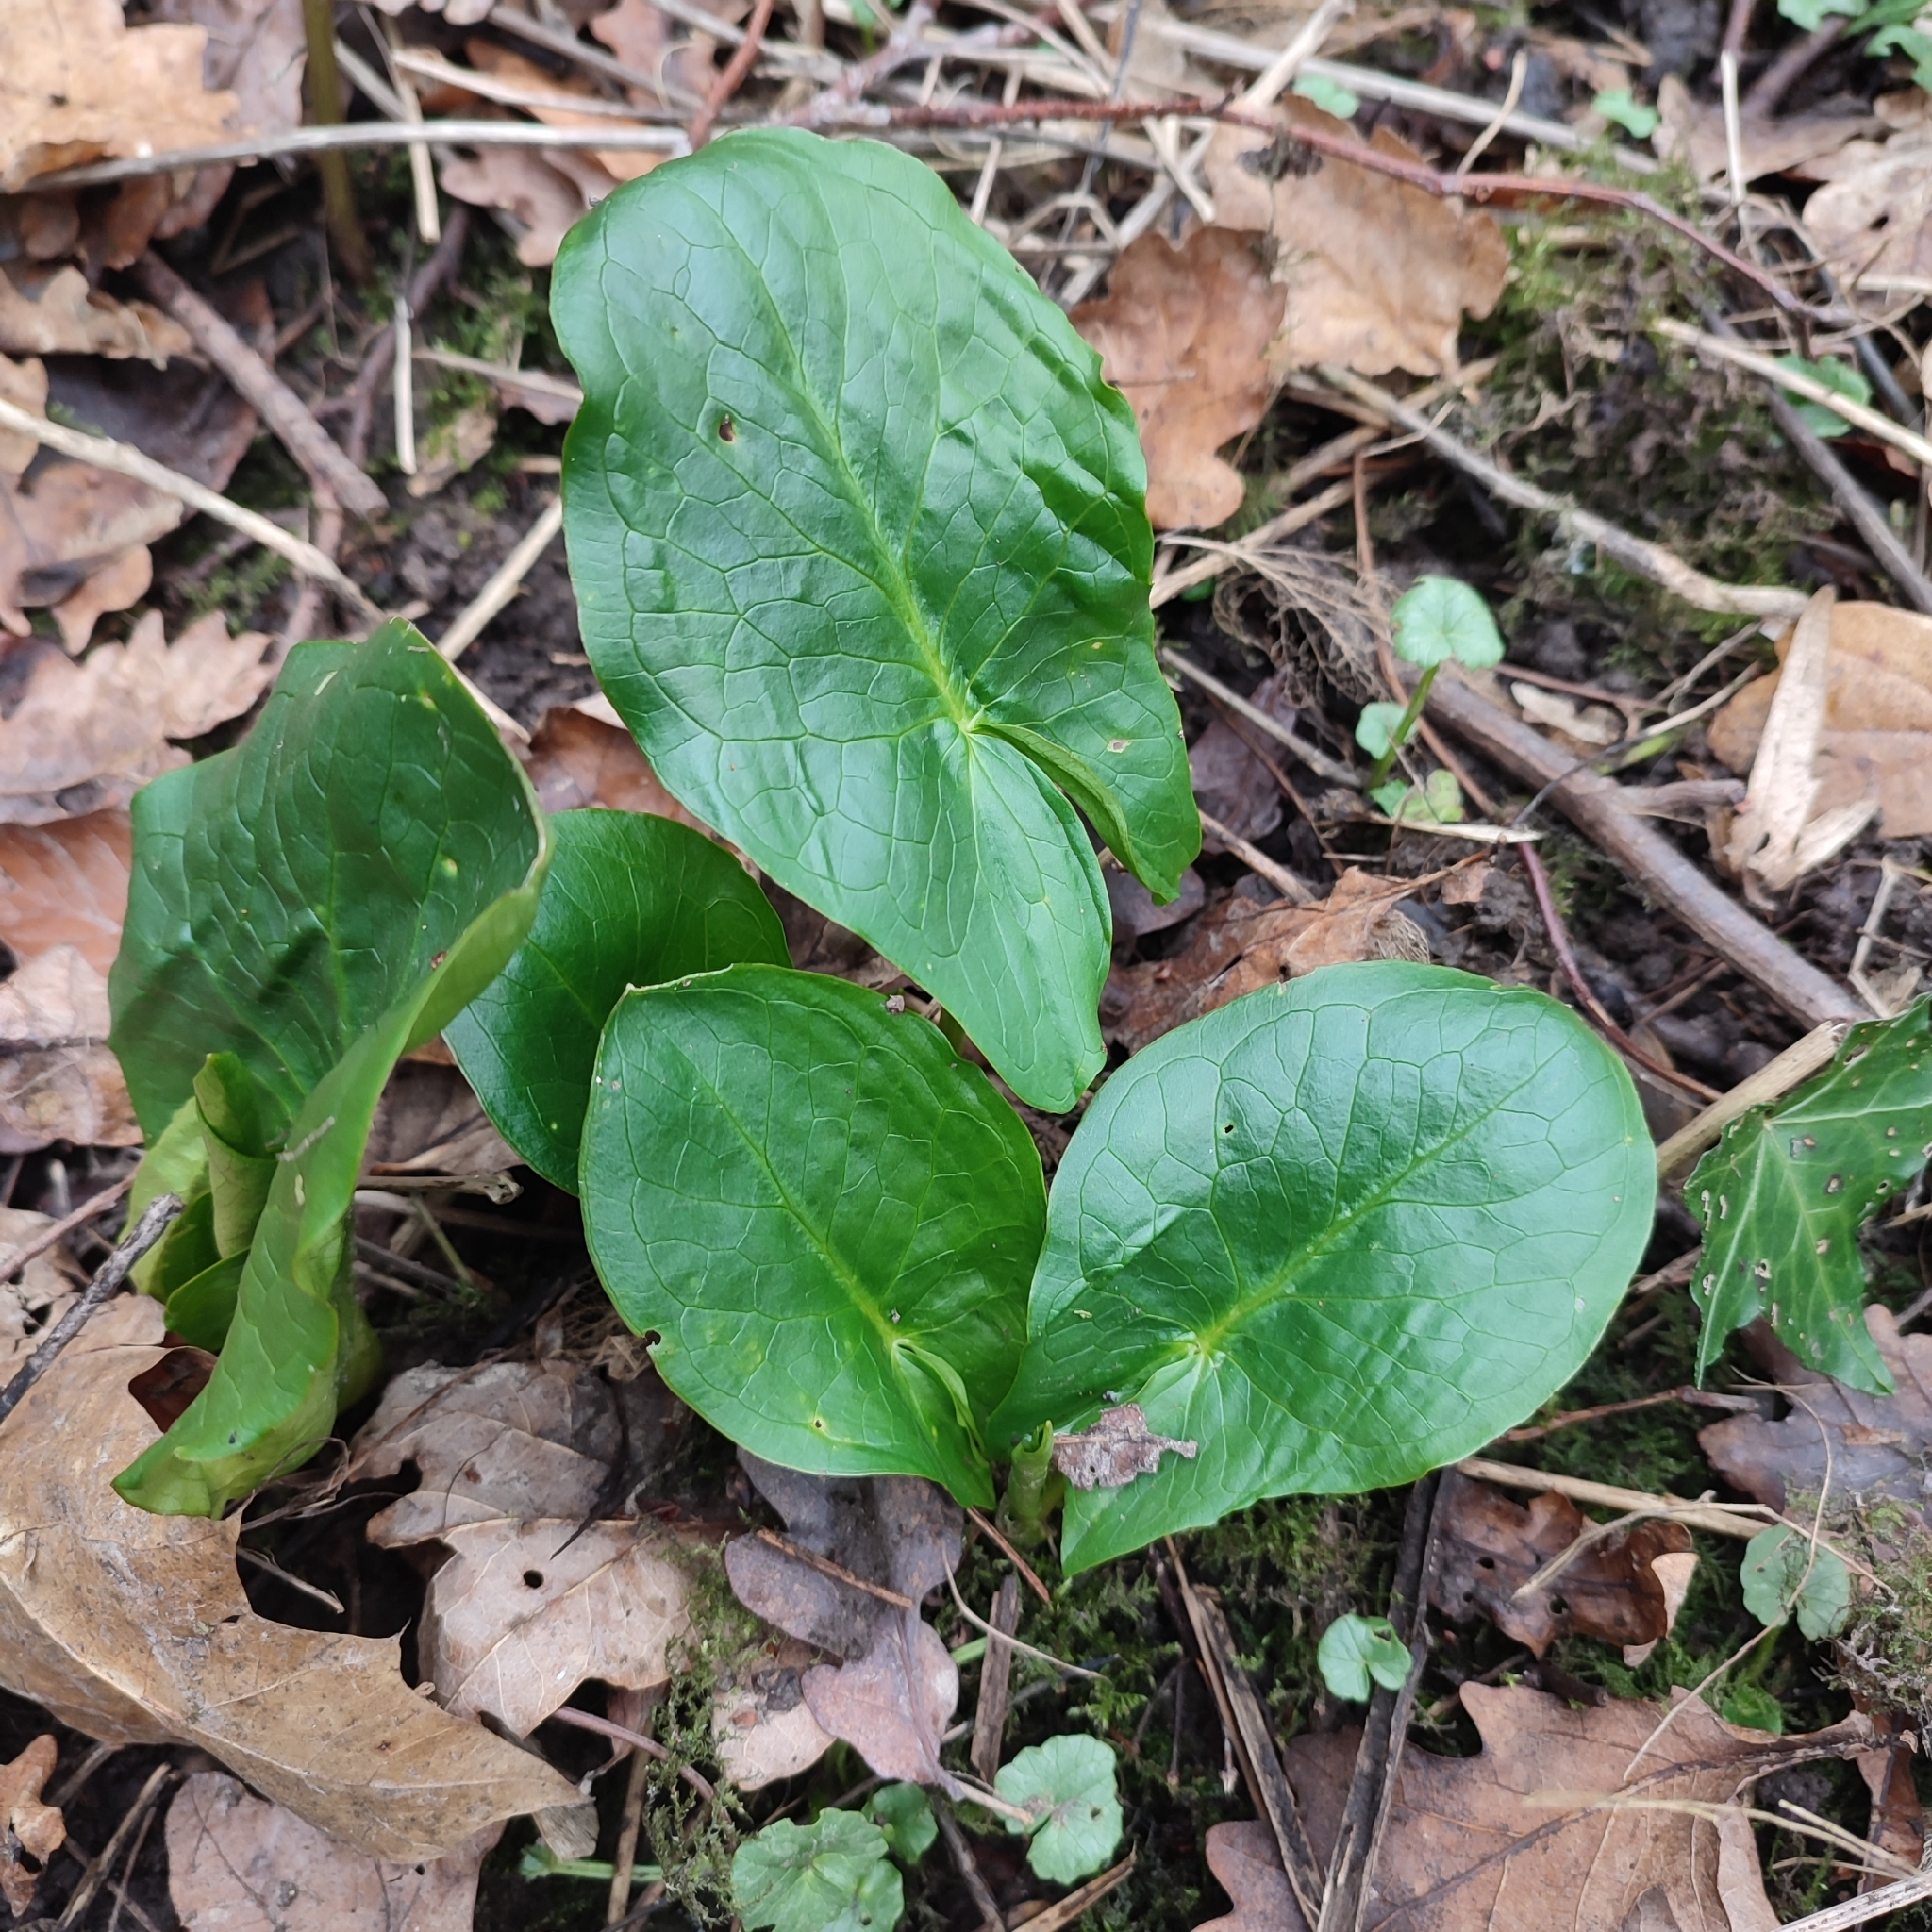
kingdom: Plantae
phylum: Tracheophyta
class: Liliopsida
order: Alismatales
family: Araceae
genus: Arum
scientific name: Arum maculatum
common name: Lords-and-ladies
